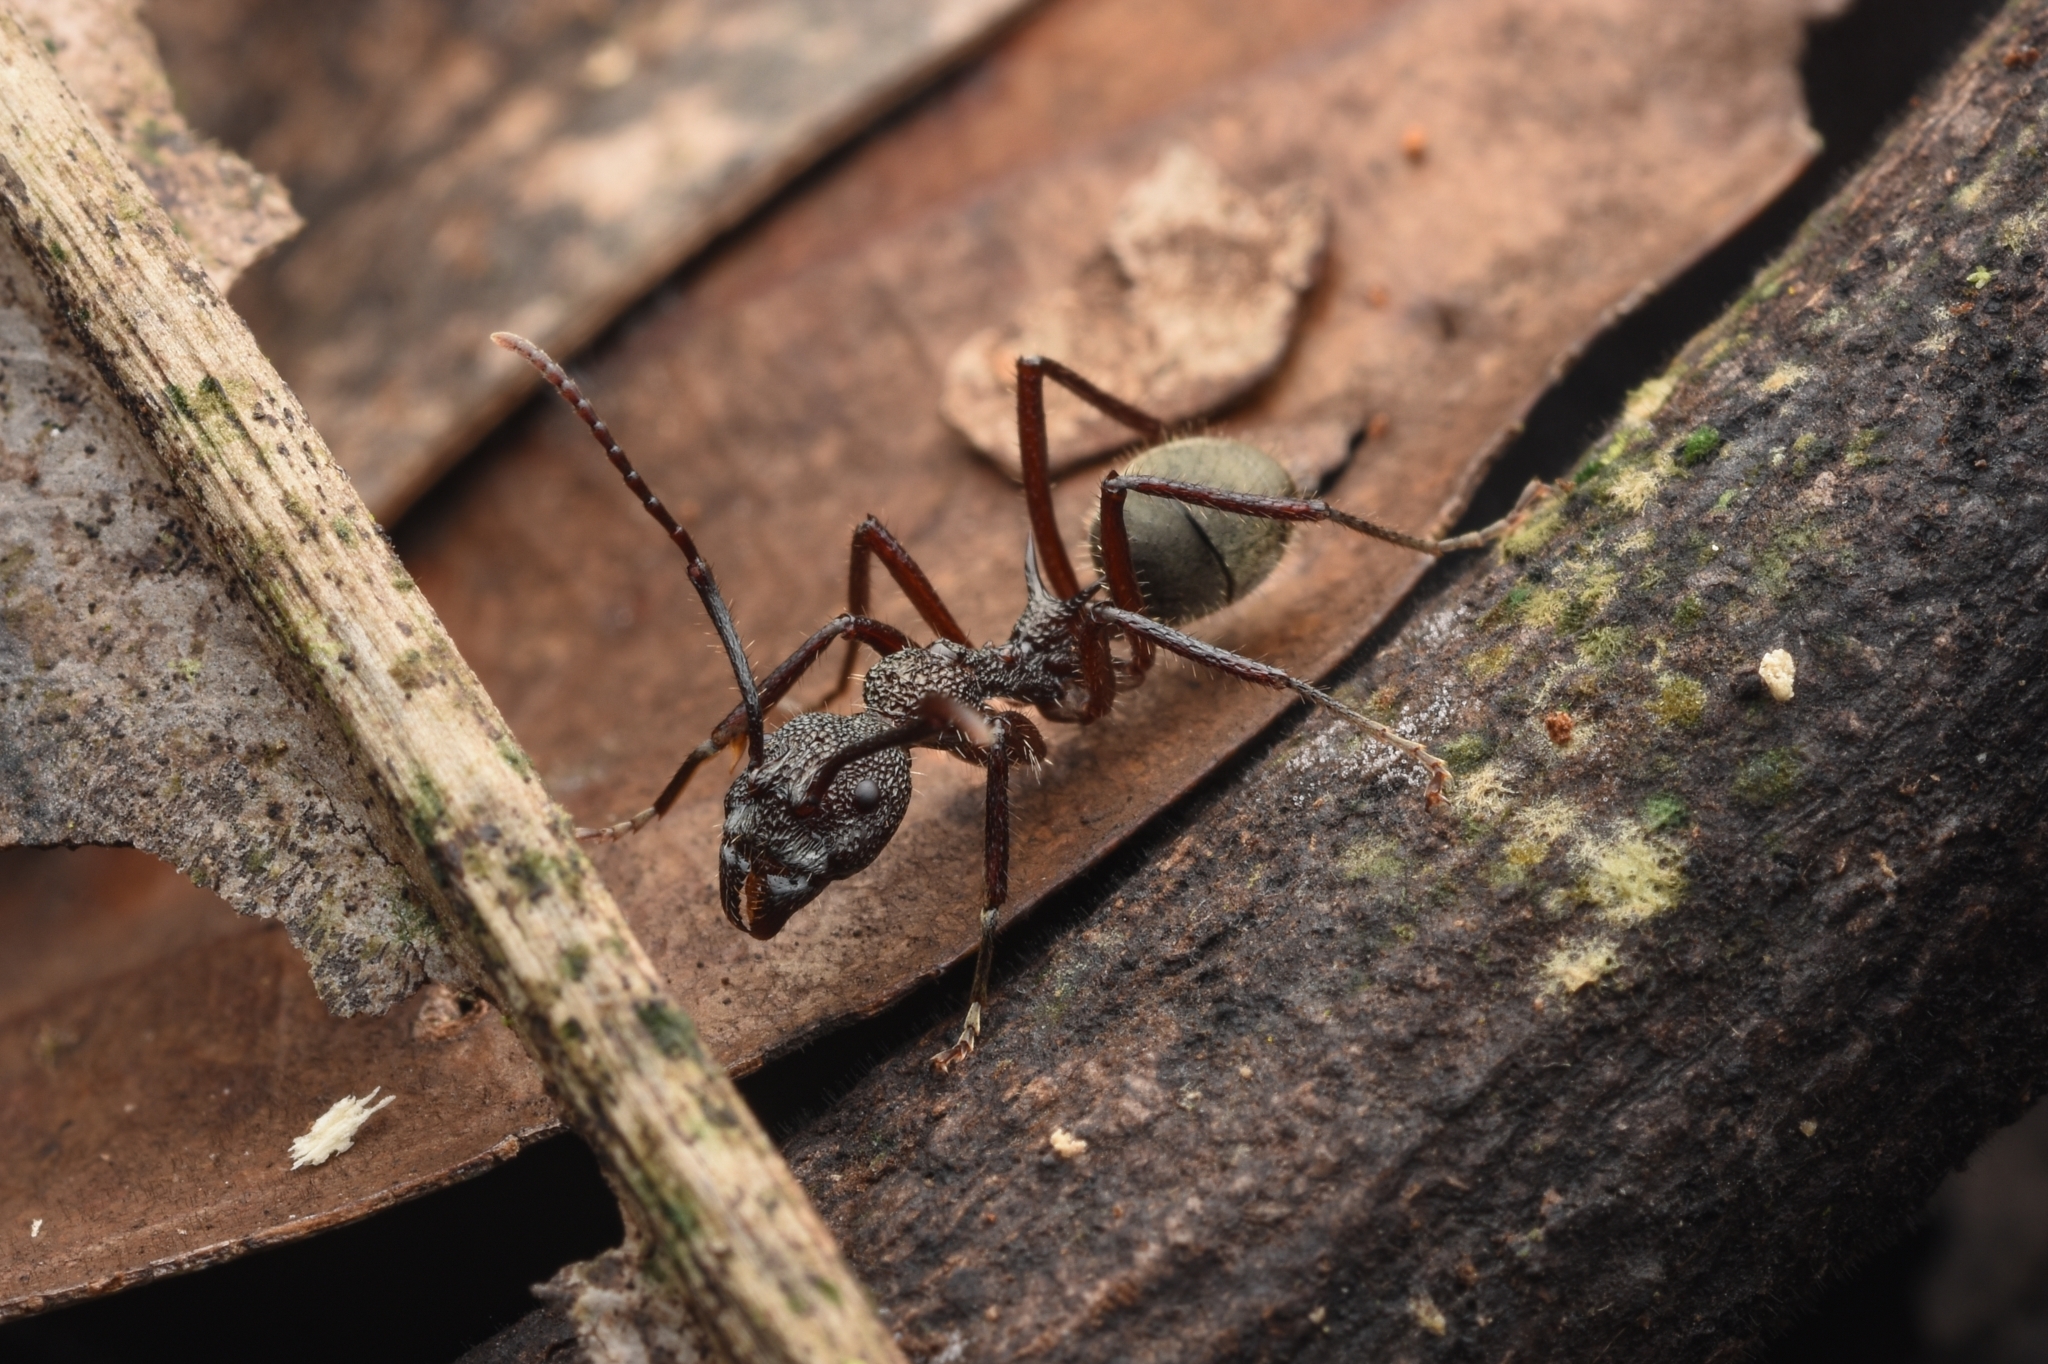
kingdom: Animalia
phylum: Arthropoda
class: Insecta
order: Hymenoptera
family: Formicidae
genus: Dolichoderus
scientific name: Dolichoderus decollatus
